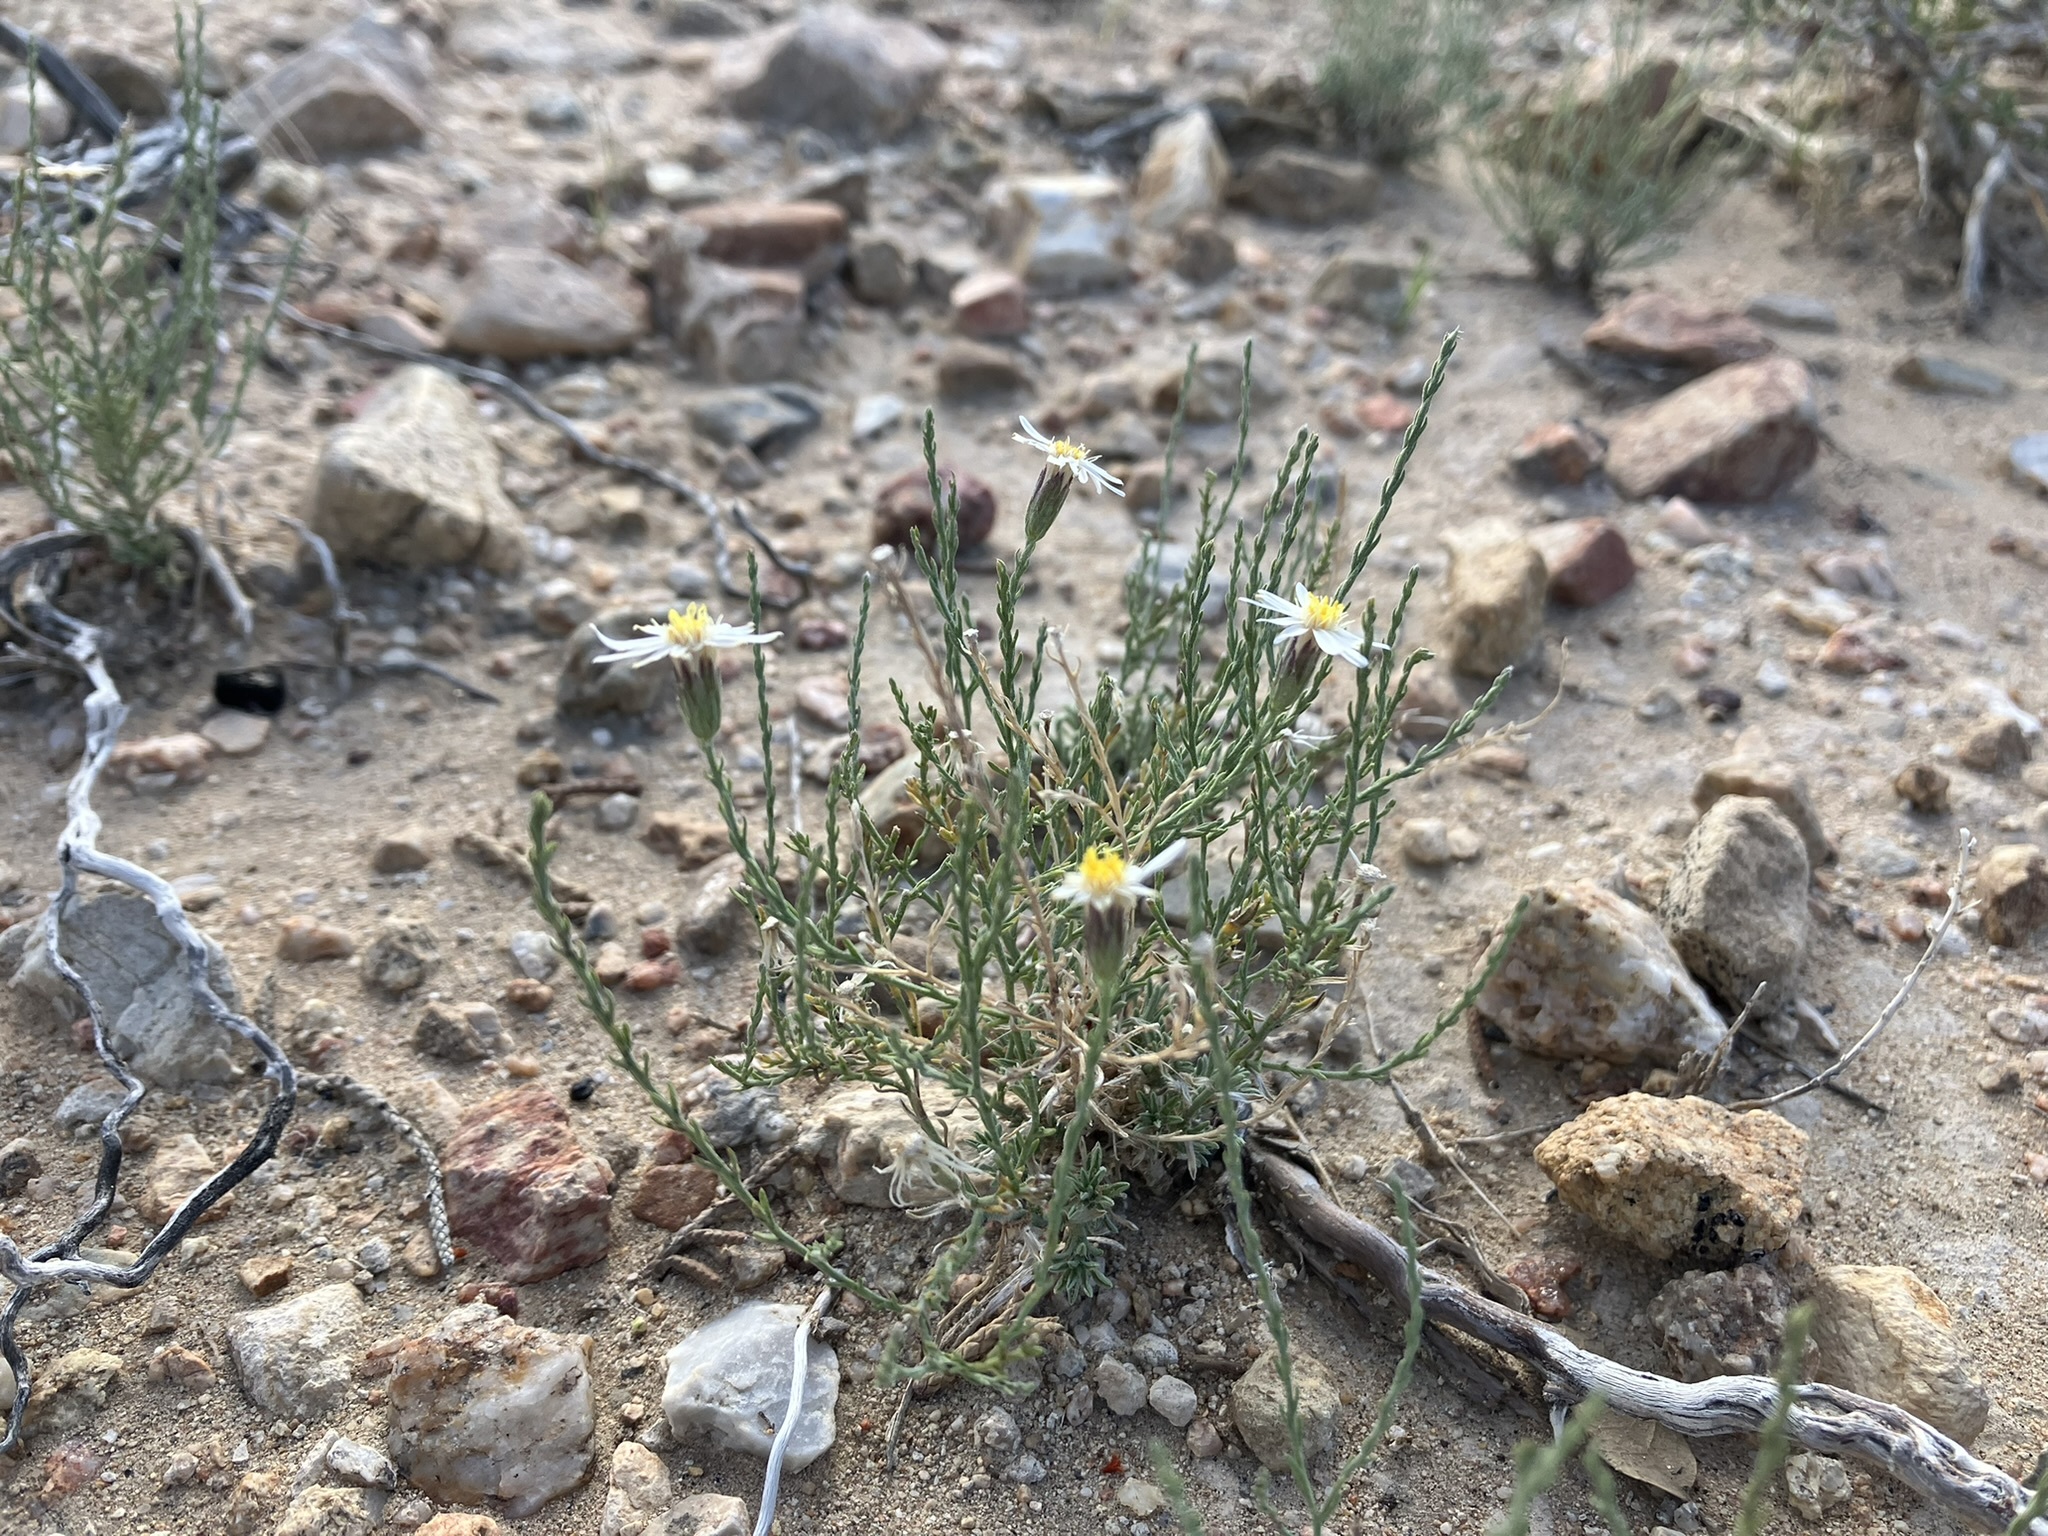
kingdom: Plantae
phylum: Tracheophyta
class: Magnoliopsida
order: Asterales
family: Asteraceae
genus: Chaetopappa
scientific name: Chaetopappa ericoides
